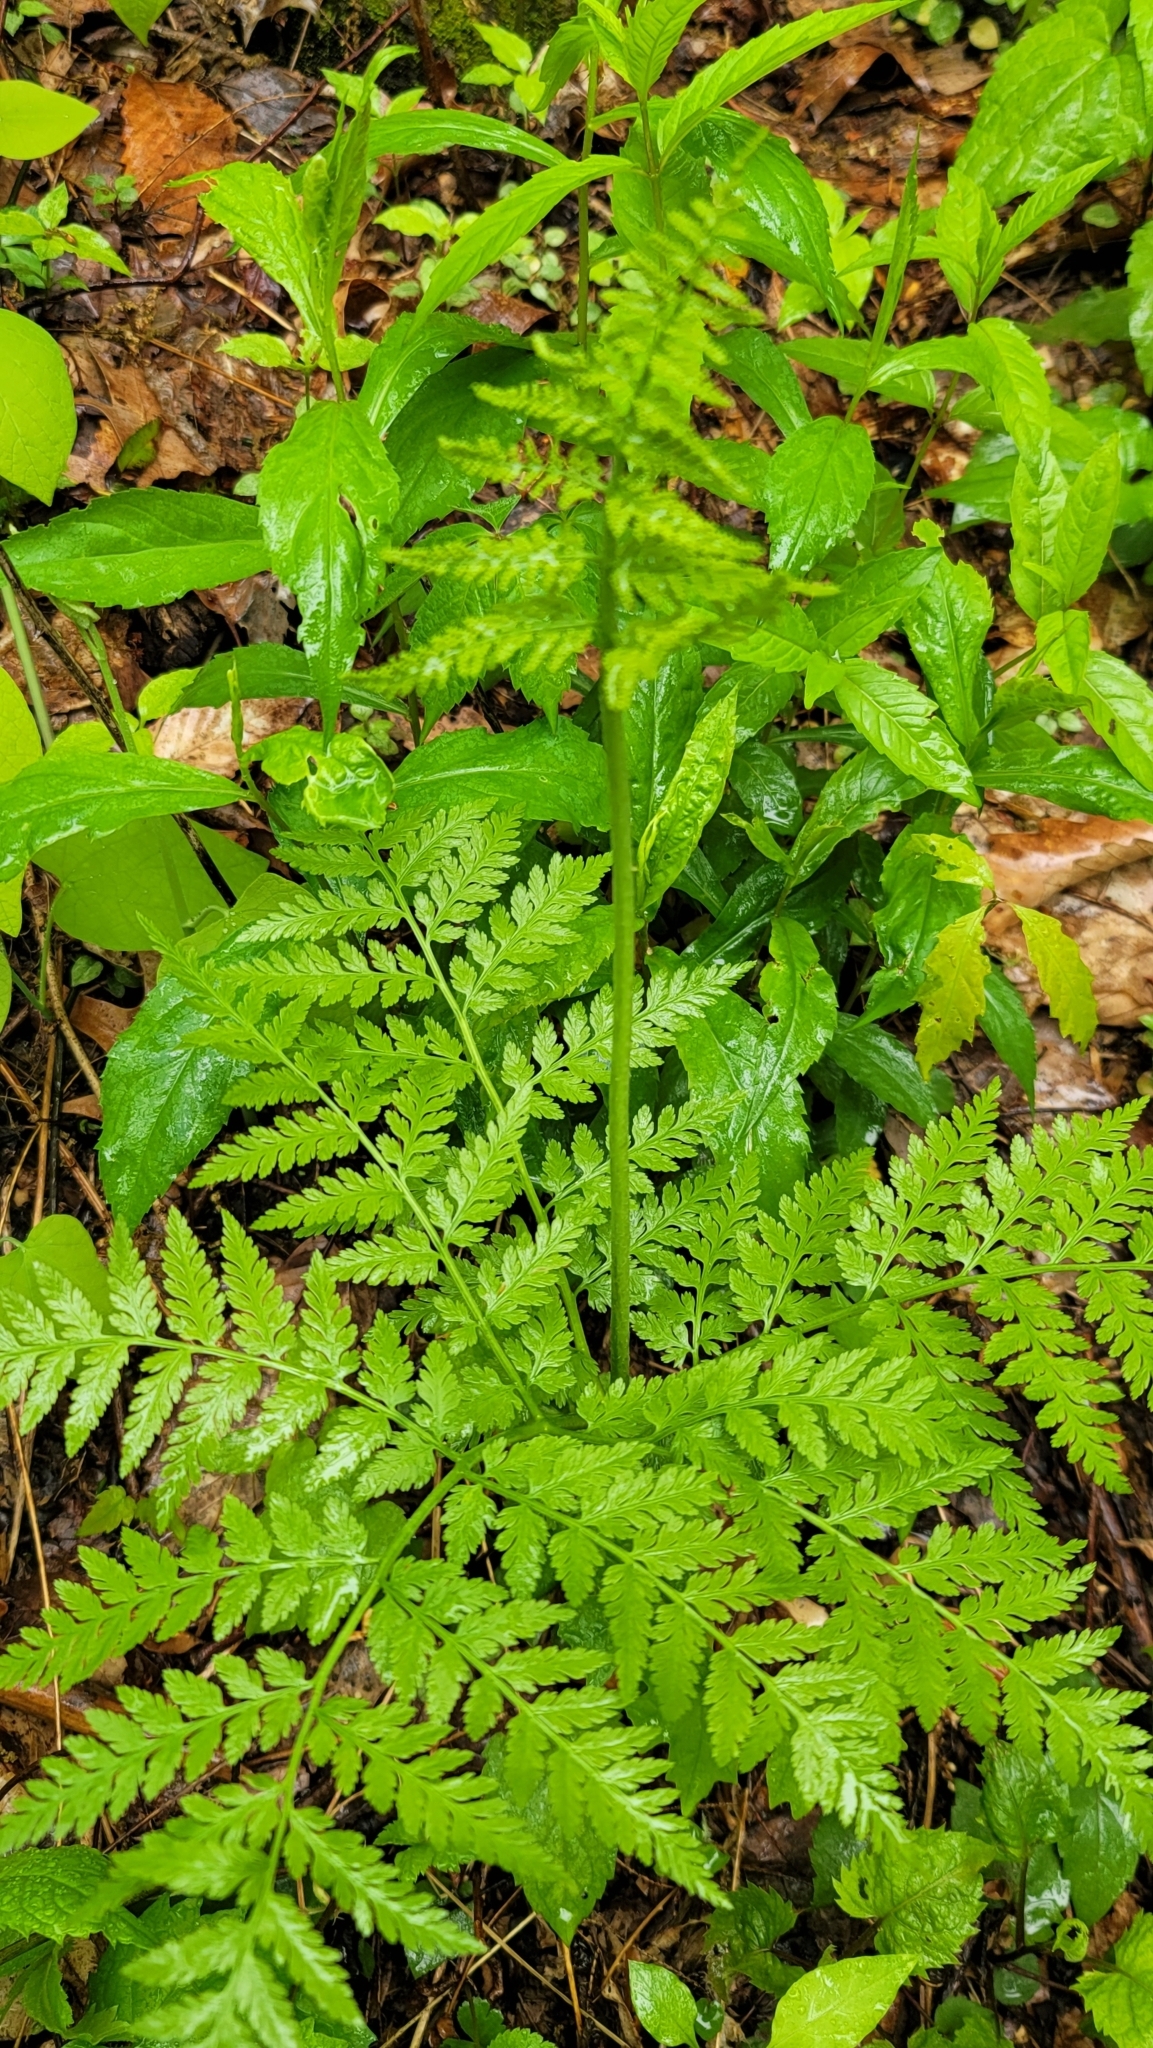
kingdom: Plantae
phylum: Tracheophyta
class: Polypodiopsida
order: Ophioglossales
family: Ophioglossaceae
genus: Botrypus
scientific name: Botrypus virginianus
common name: Common grapefern
